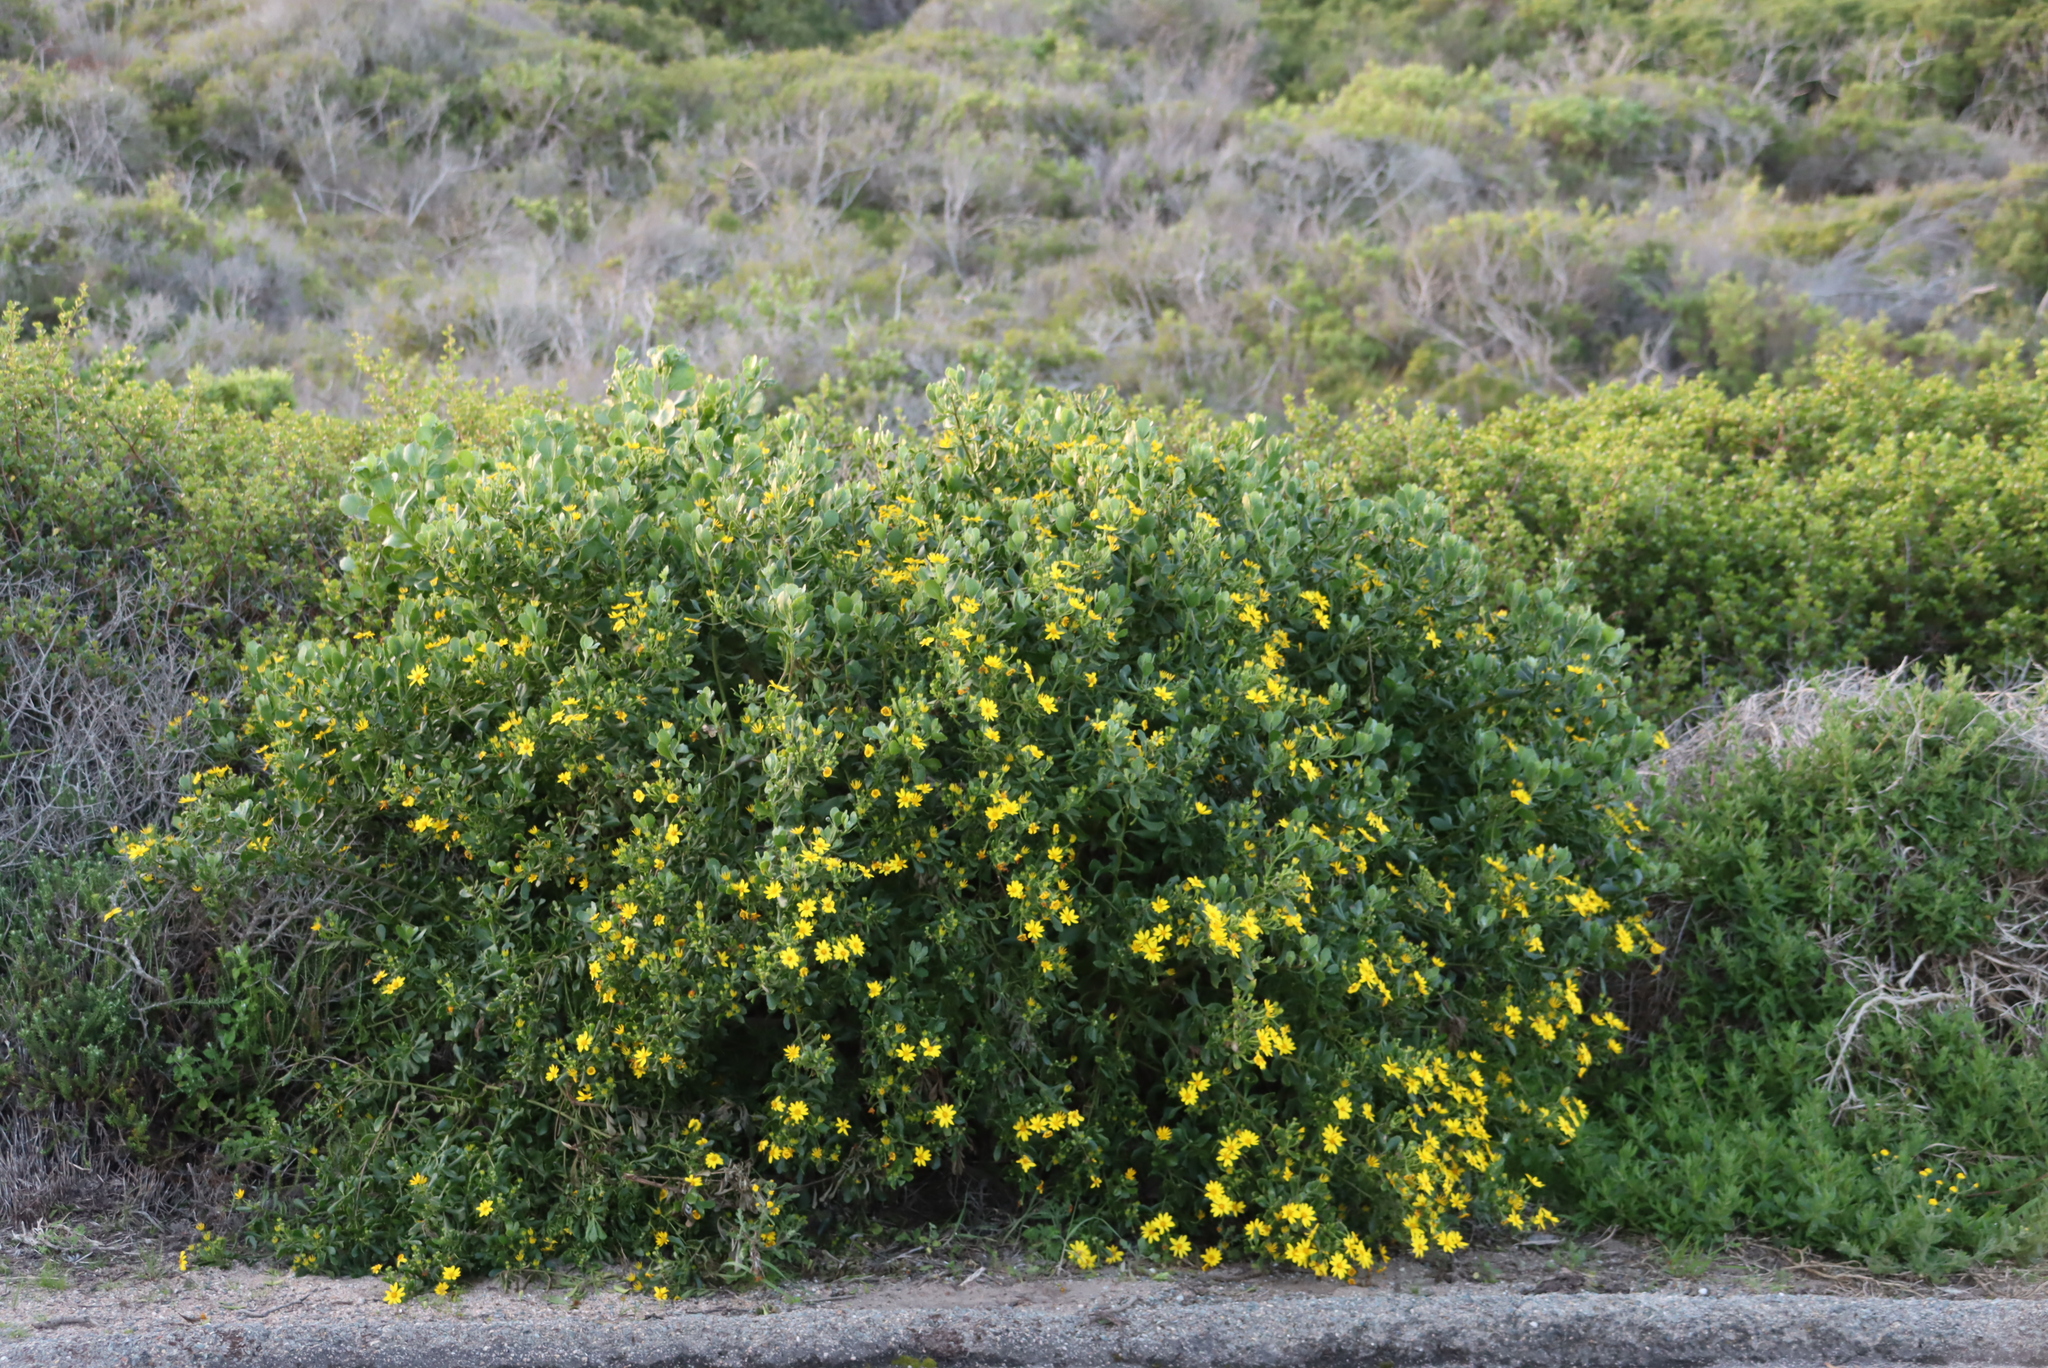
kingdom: Plantae
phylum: Tracheophyta
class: Magnoliopsida
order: Asterales
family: Asteraceae
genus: Osteospermum
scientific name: Osteospermum moniliferum
